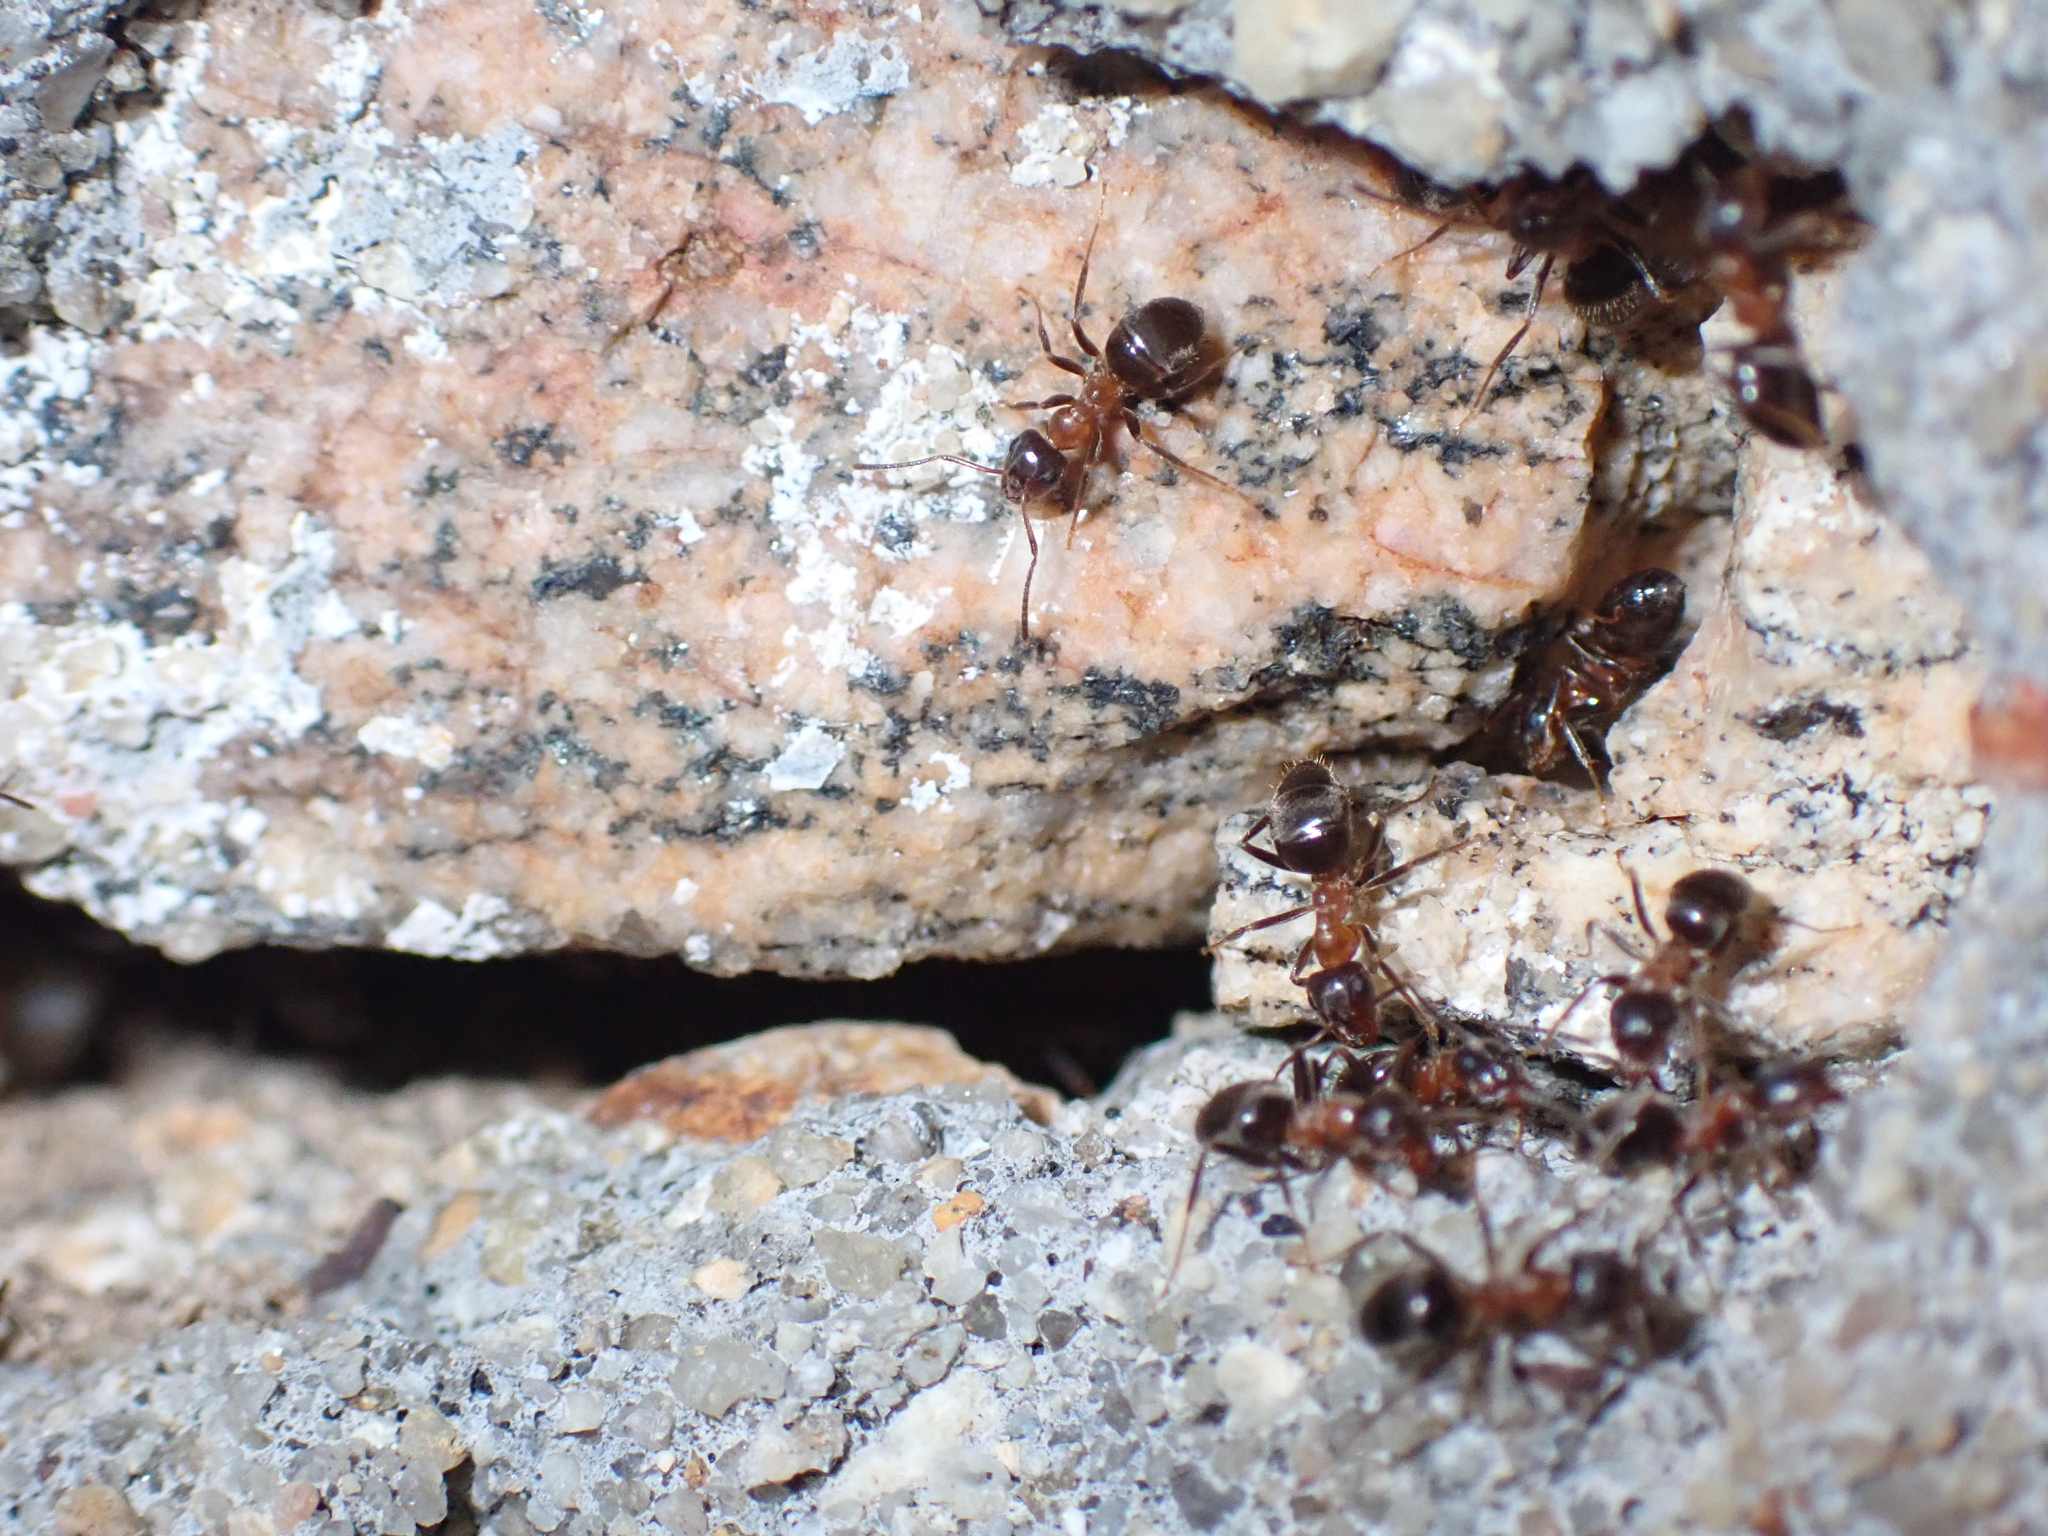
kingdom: Animalia
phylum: Arthropoda
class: Insecta
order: Hymenoptera
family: Formicidae
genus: Lasius
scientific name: Lasius emarginatus
